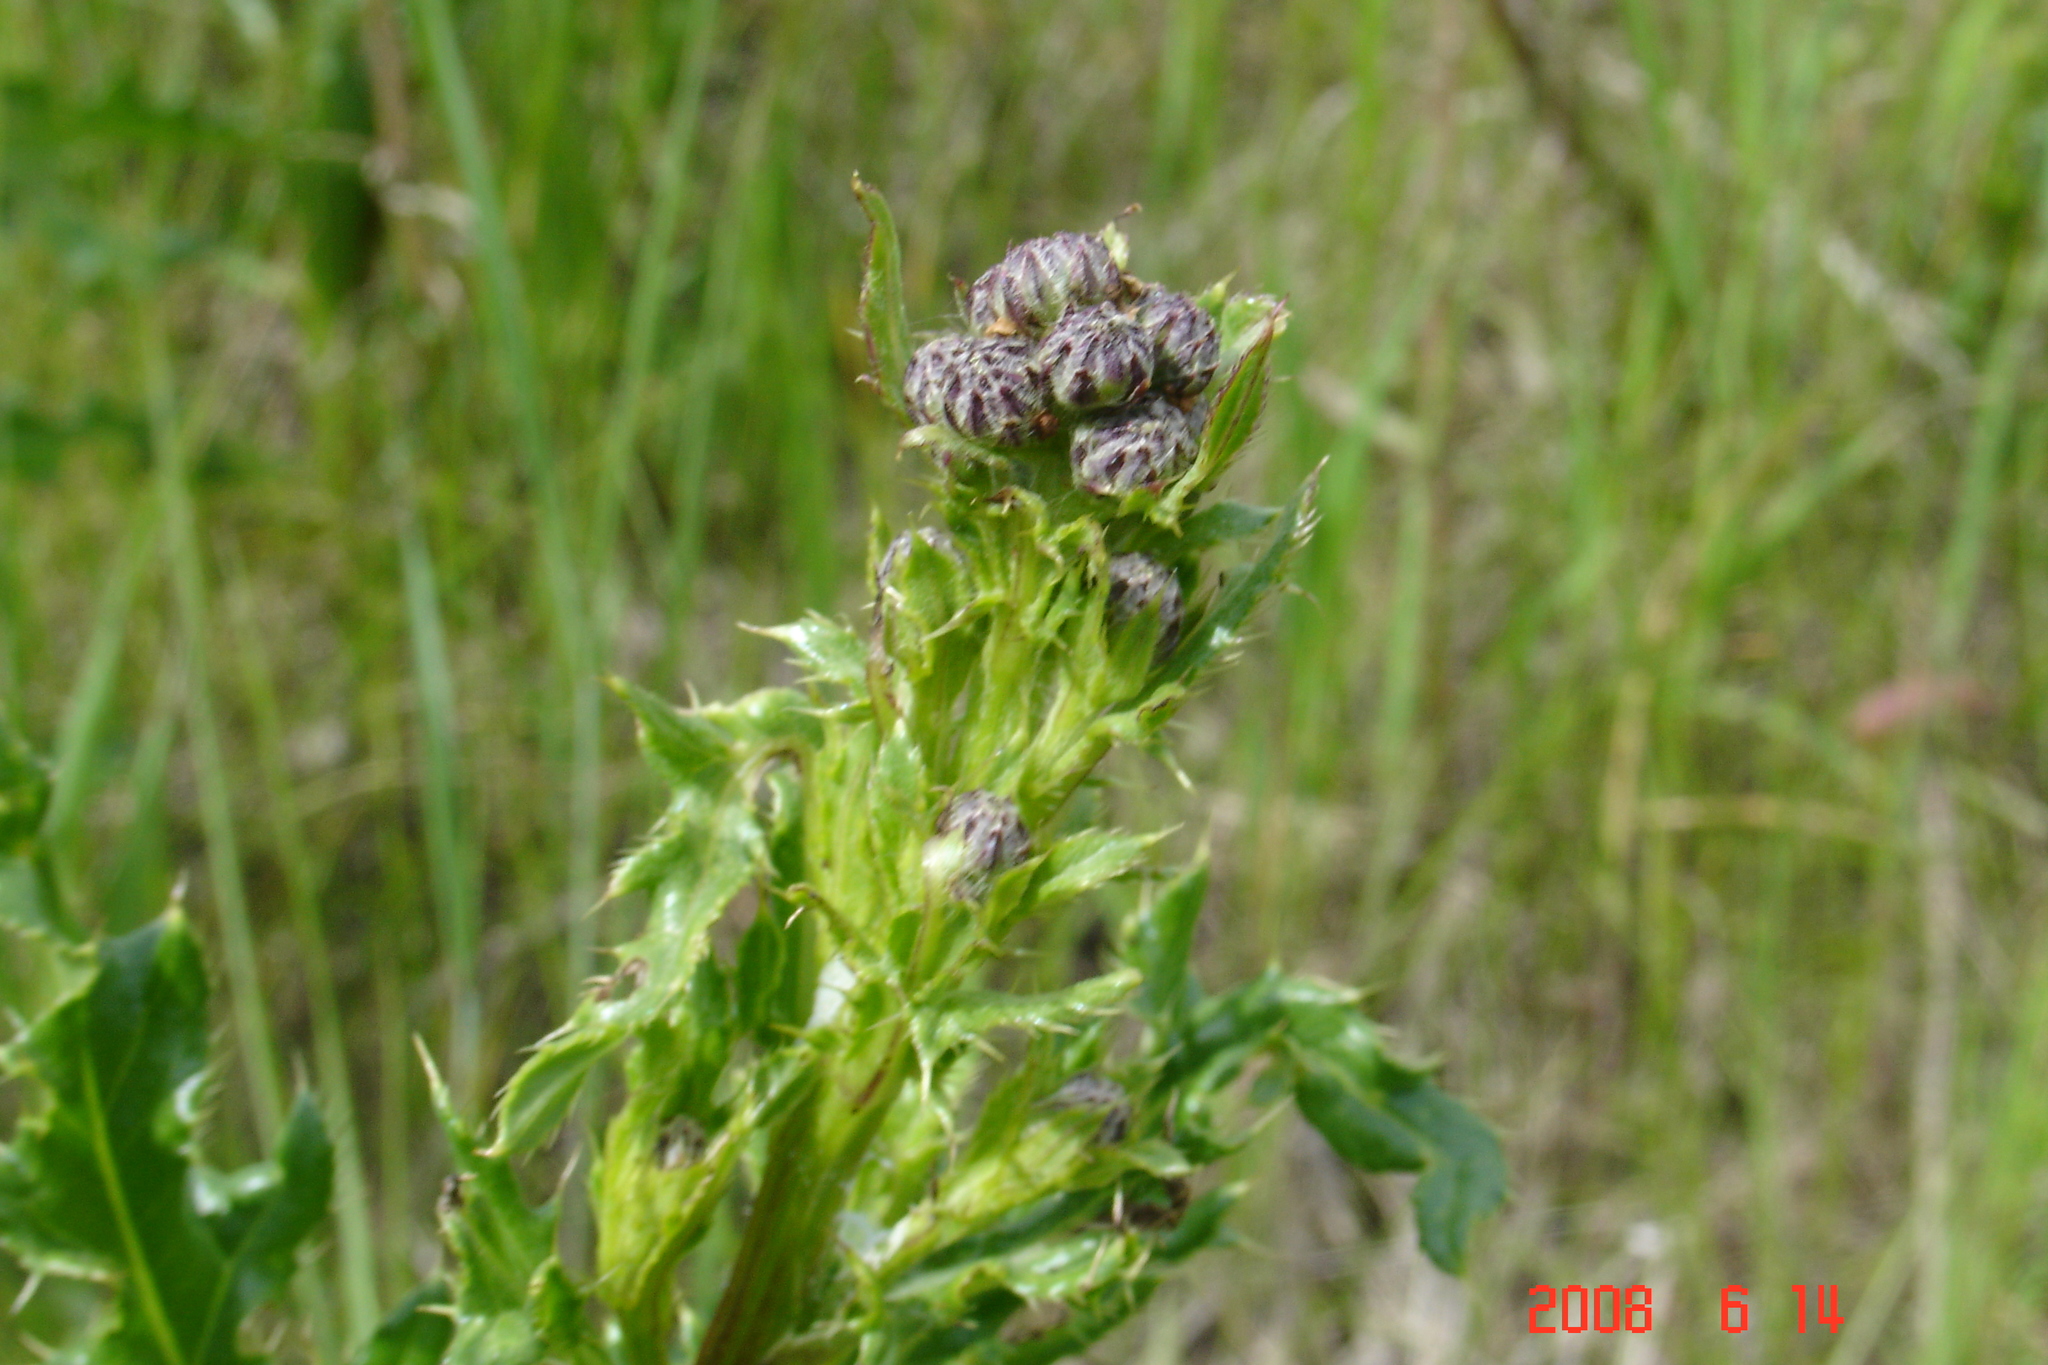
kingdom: Plantae
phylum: Tracheophyta
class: Magnoliopsida
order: Asterales
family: Asteraceae
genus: Cirsium
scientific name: Cirsium arvense
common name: Creeping thistle
